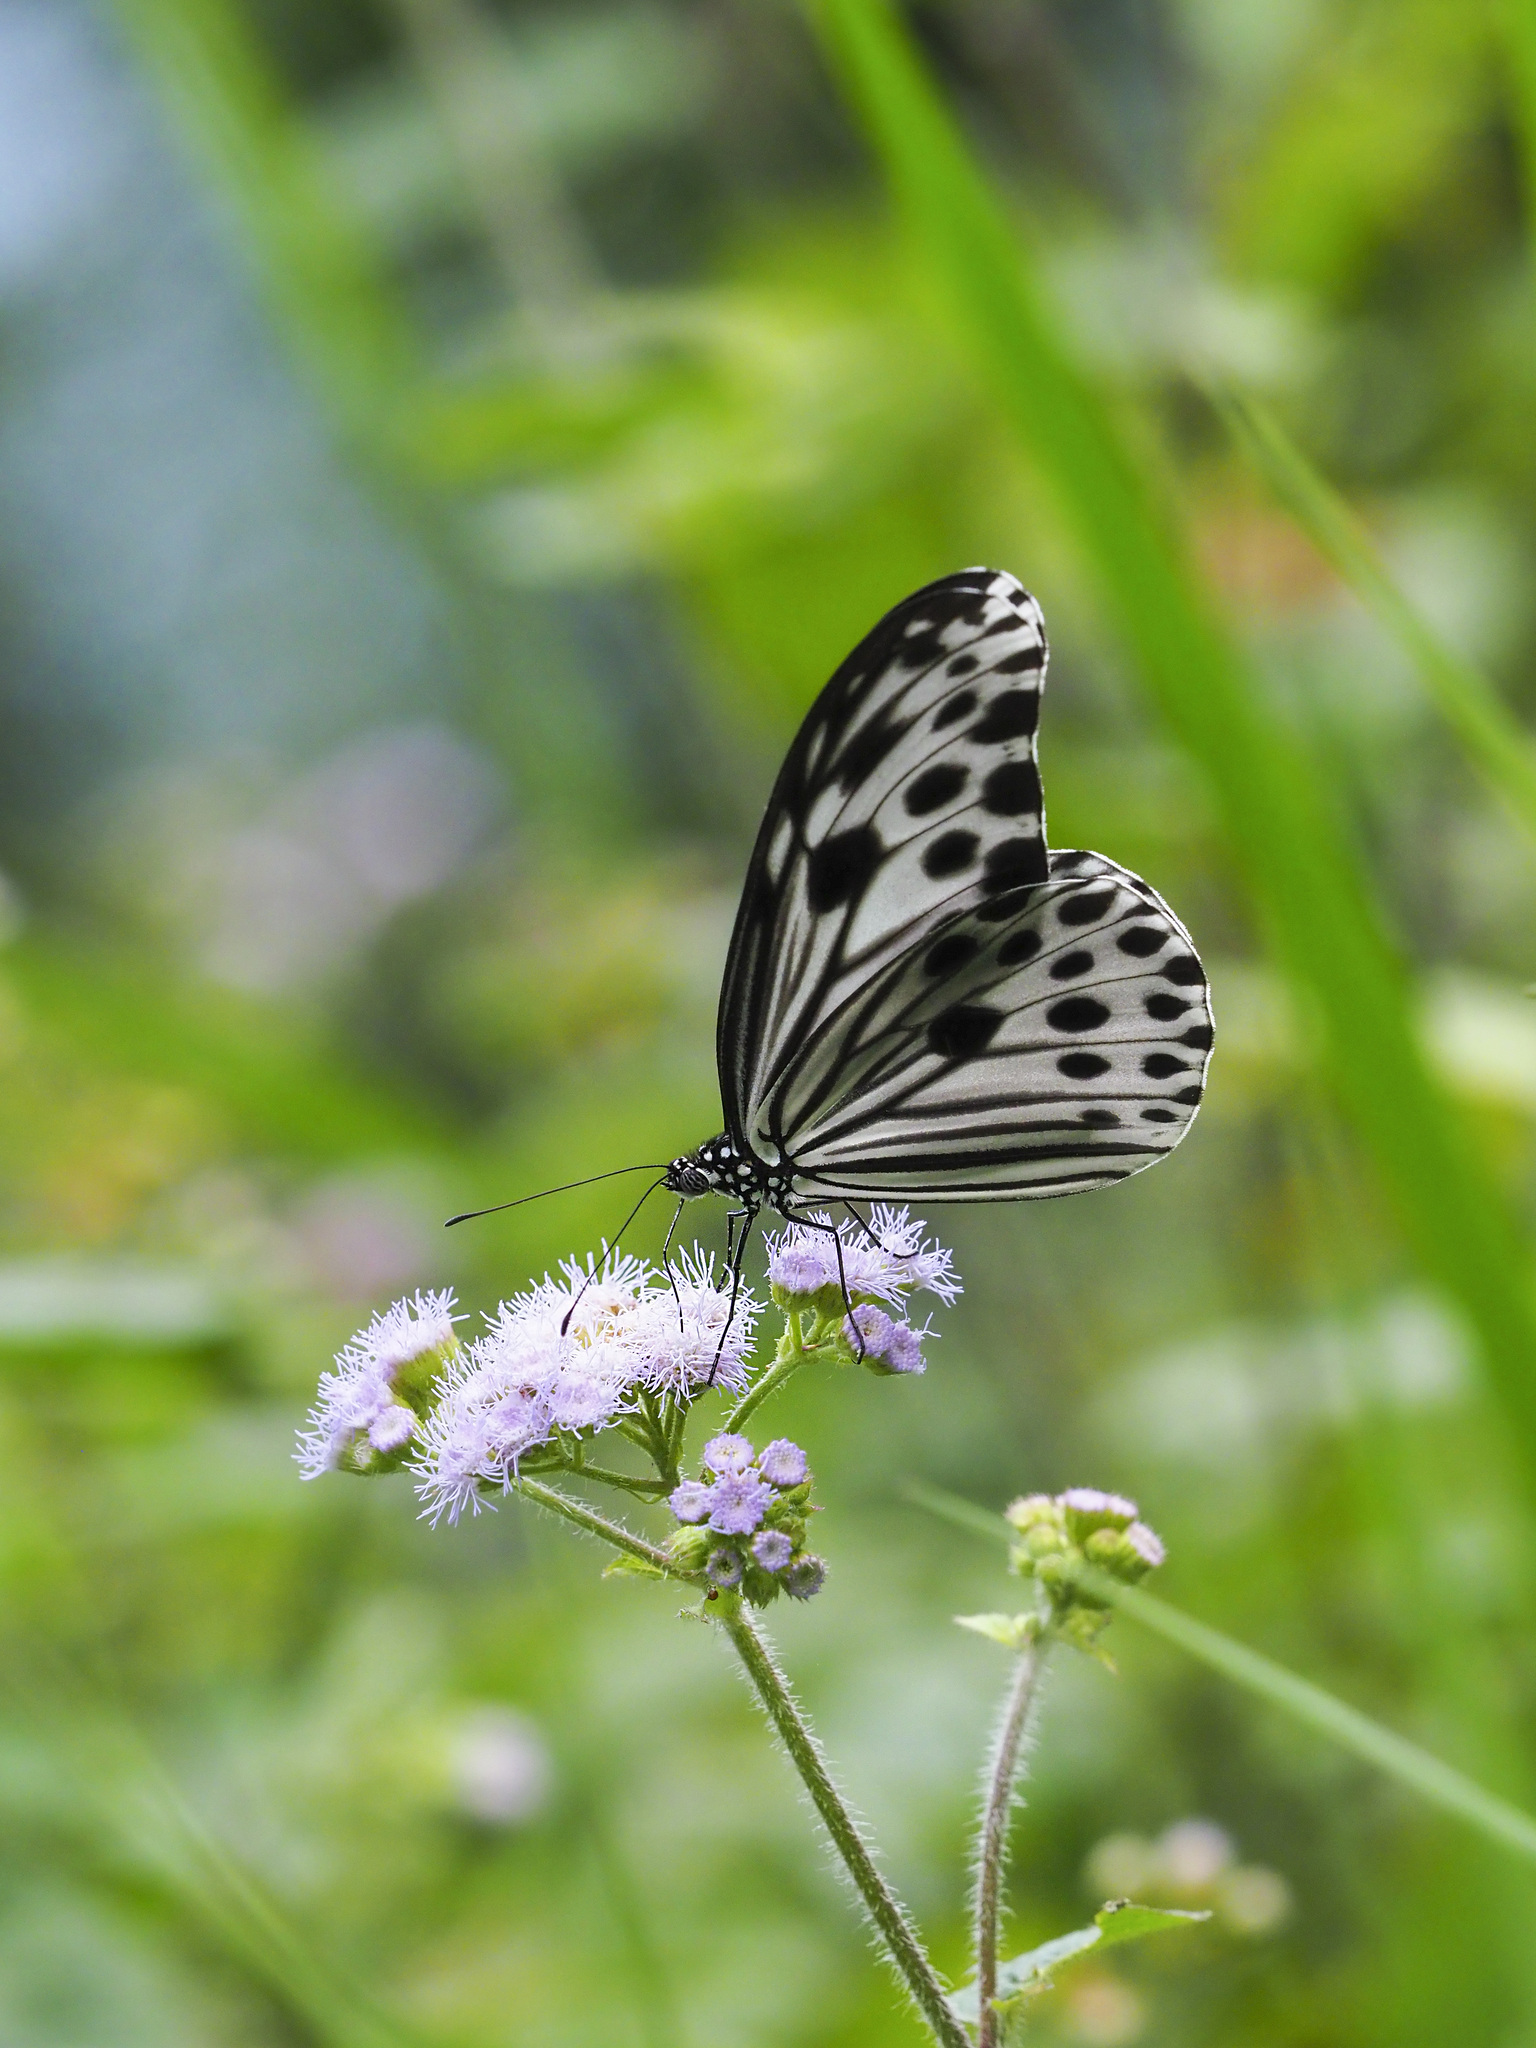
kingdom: Animalia
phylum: Arthropoda
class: Insecta
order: Lepidoptera
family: Nymphalidae
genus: Ideopsis
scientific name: Ideopsis gaura
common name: Smaller wood nymph
